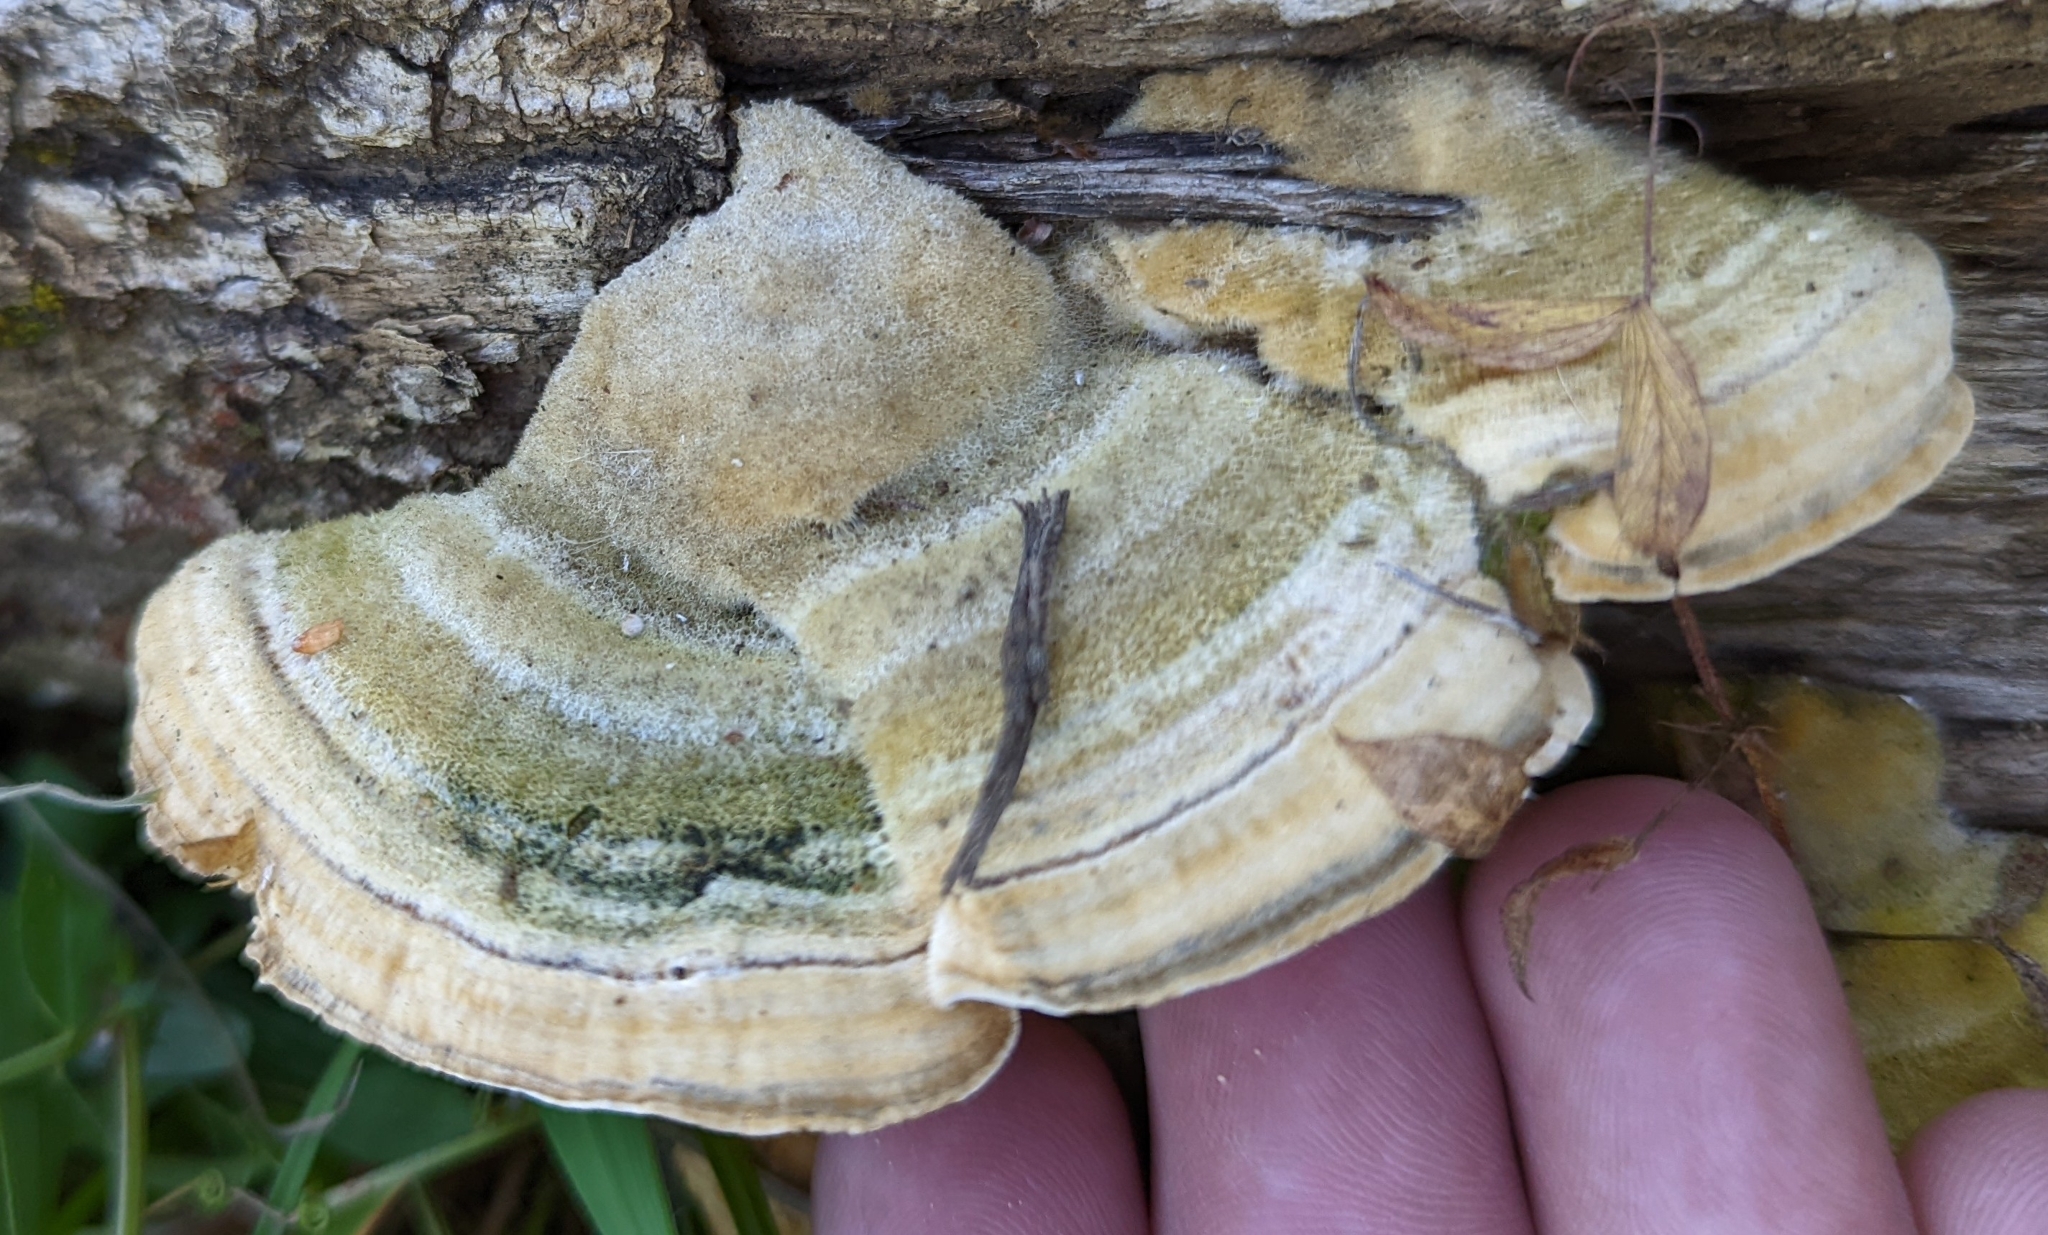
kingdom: Fungi
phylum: Basidiomycota
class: Agaricomycetes
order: Polyporales
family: Polyporaceae
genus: Lenzites
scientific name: Lenzites betulinus
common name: Birch mazegill
